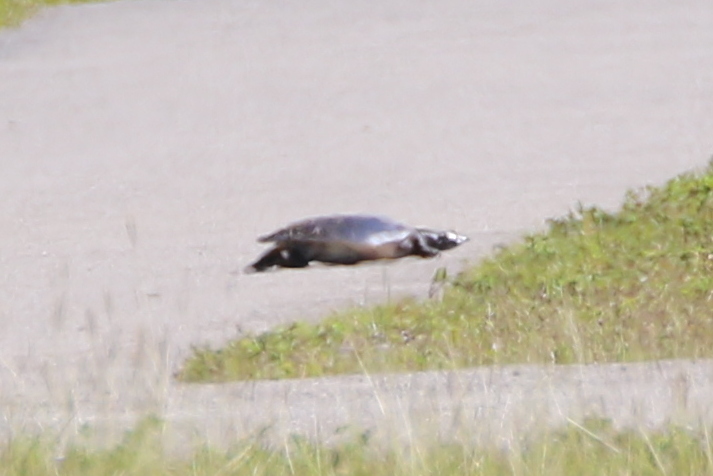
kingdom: Animalia
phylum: Chordata
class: Testudines
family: Trionychidae
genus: Apalone
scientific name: Apalone ferox
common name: Florida softshell turtle
